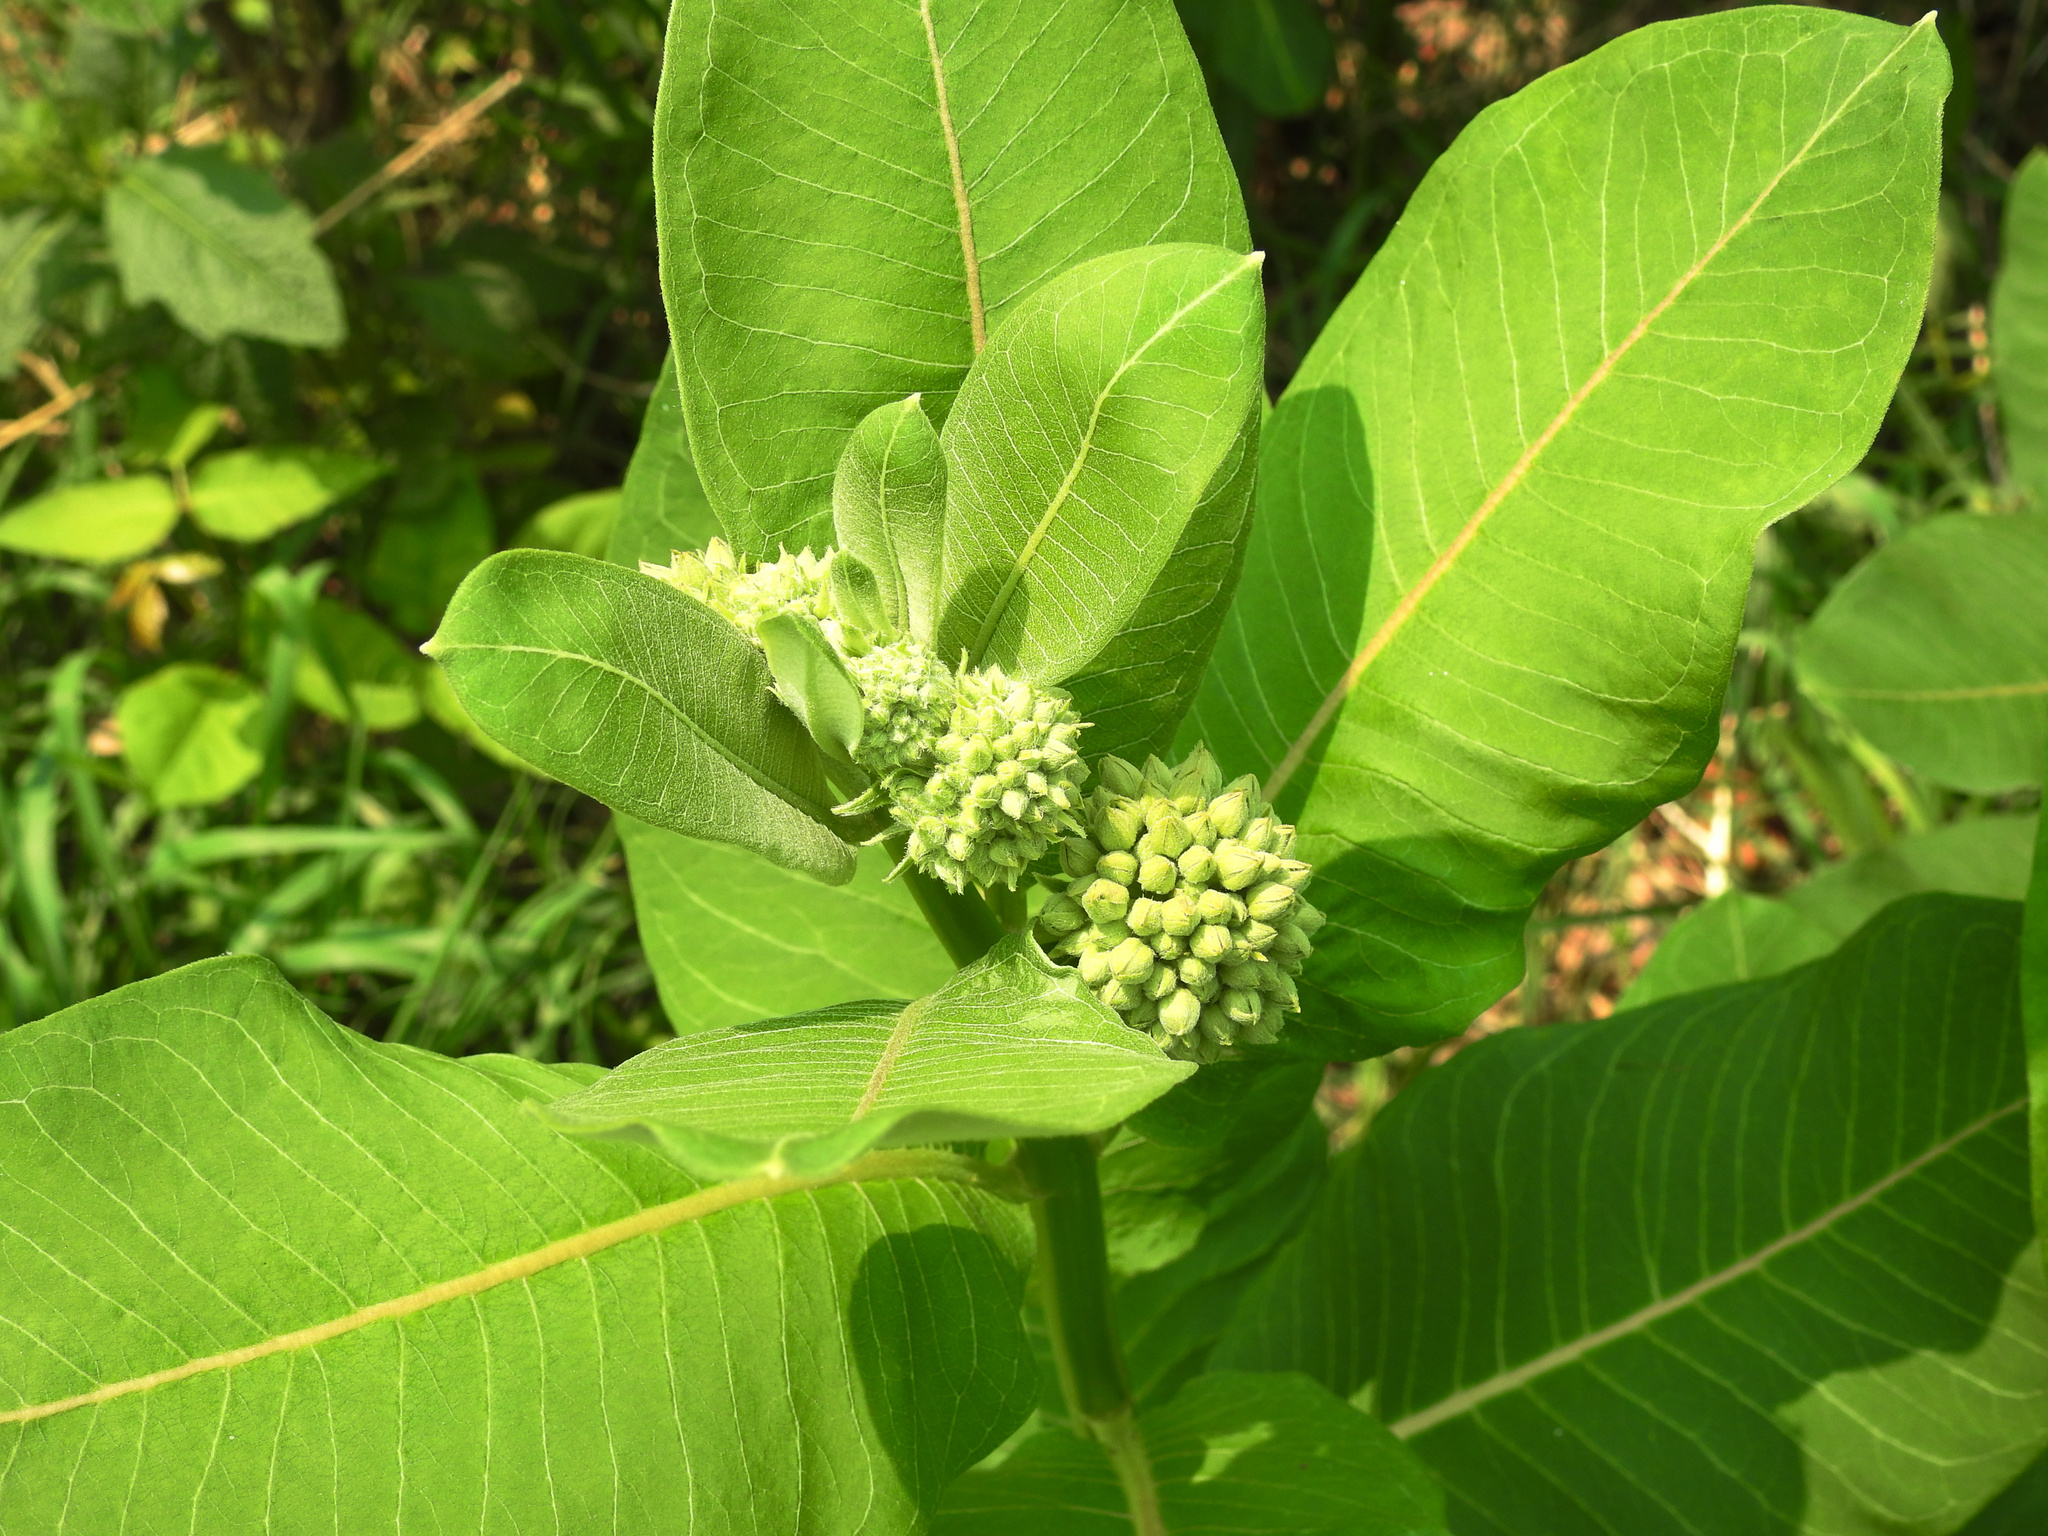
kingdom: Plantae
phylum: Tracheophyta
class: Magnoliopsida
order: Gentianales
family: Apocynaceae
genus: Asclepias
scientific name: Asclepias syriaca
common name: Common milkweed
